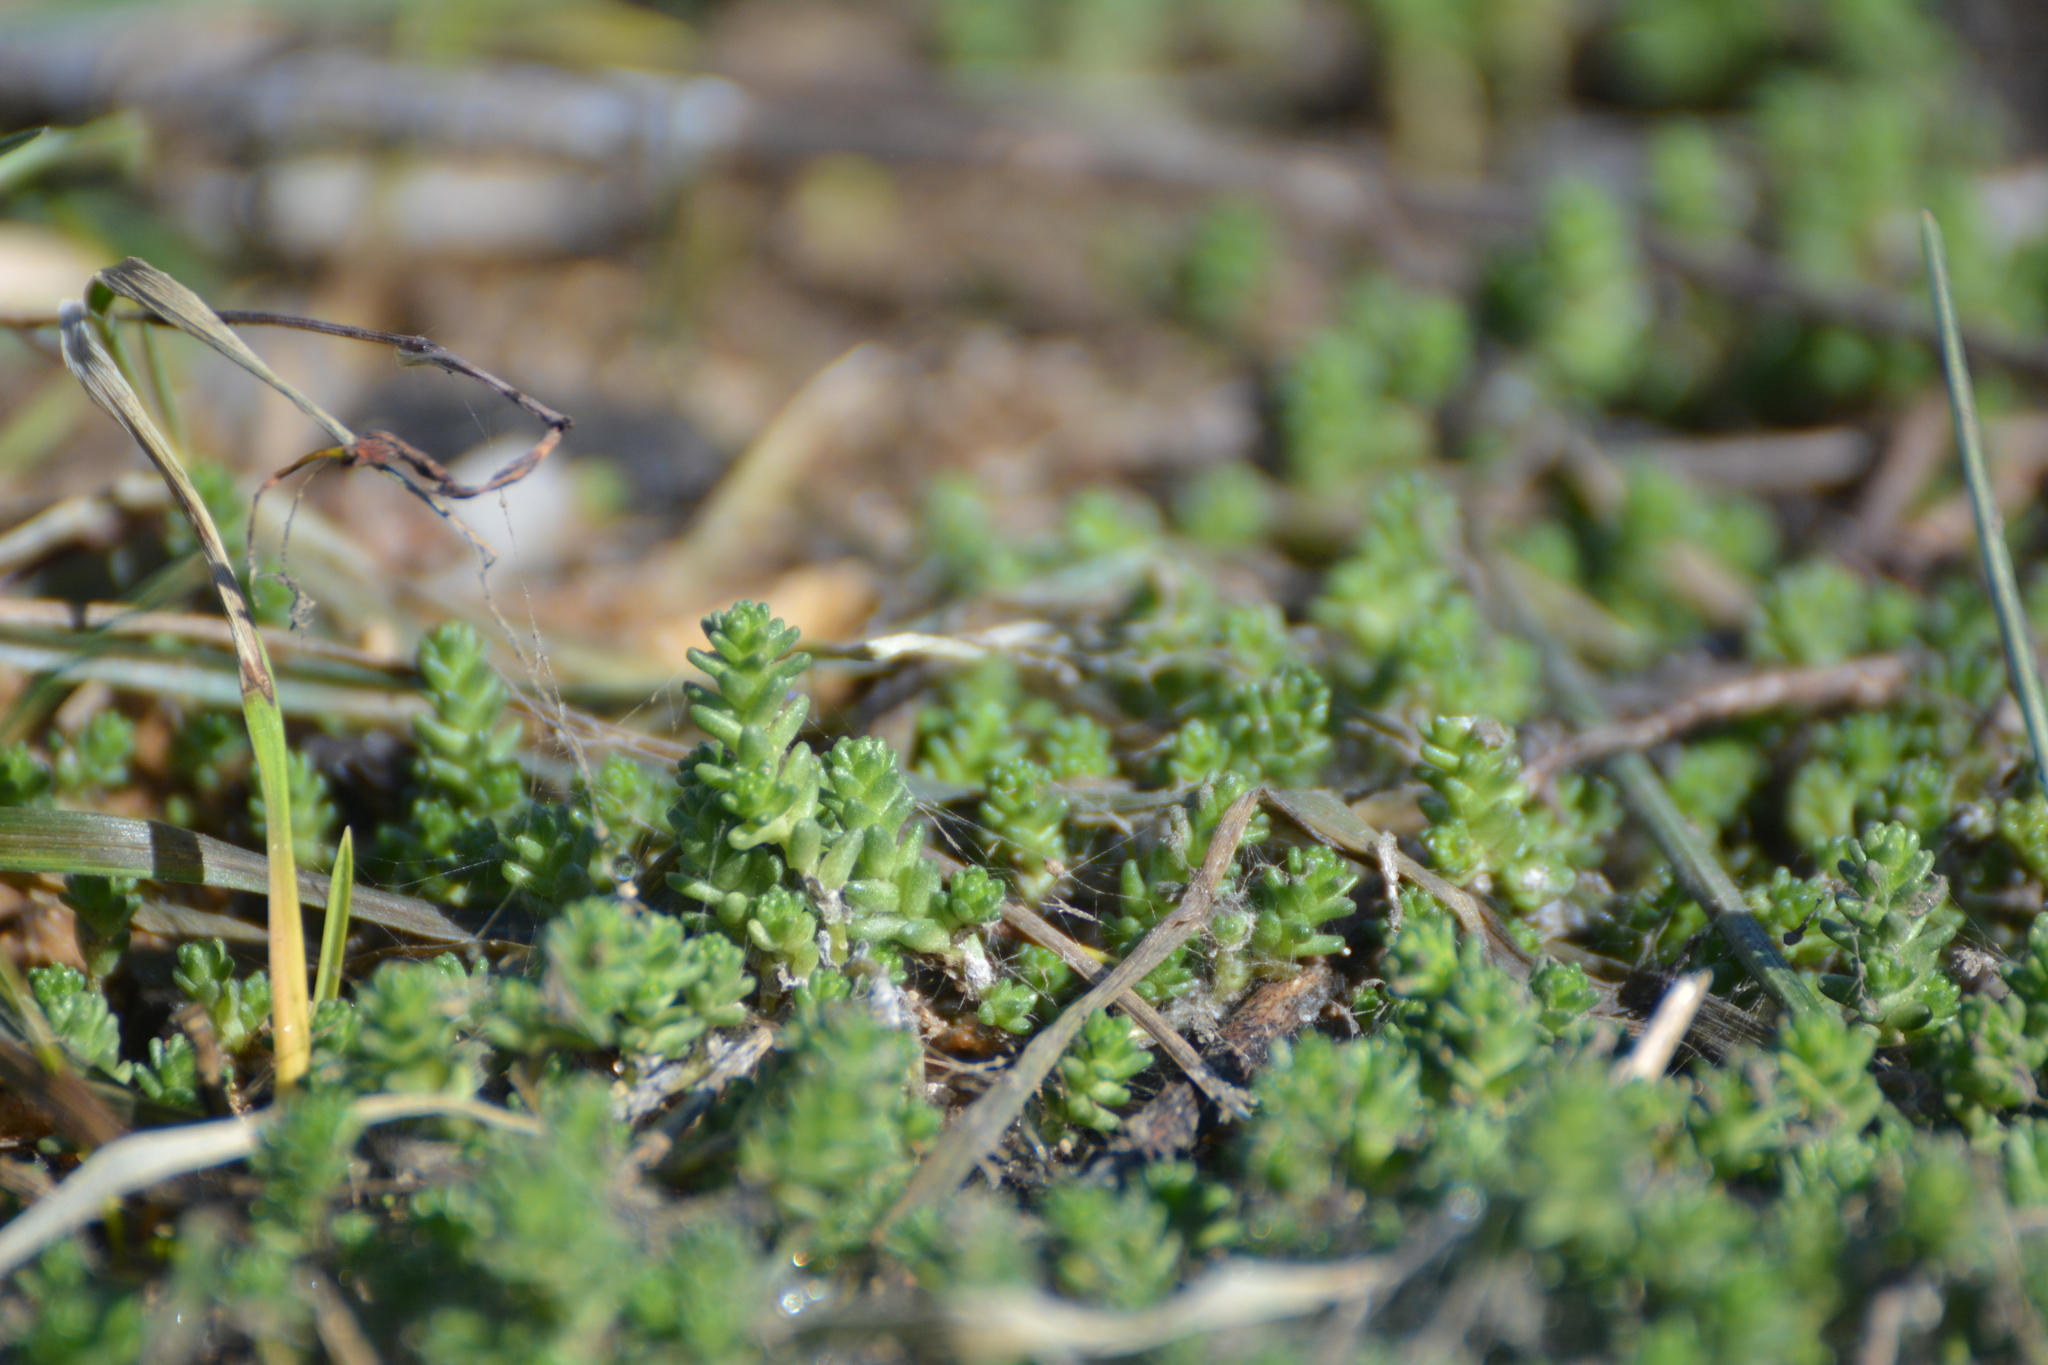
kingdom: Plantae
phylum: Tracheophyta
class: Magnoliopsida
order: Saxifragales
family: Crassulaceae
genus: Sedum
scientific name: Sedum acre
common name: Biting stonecrop
